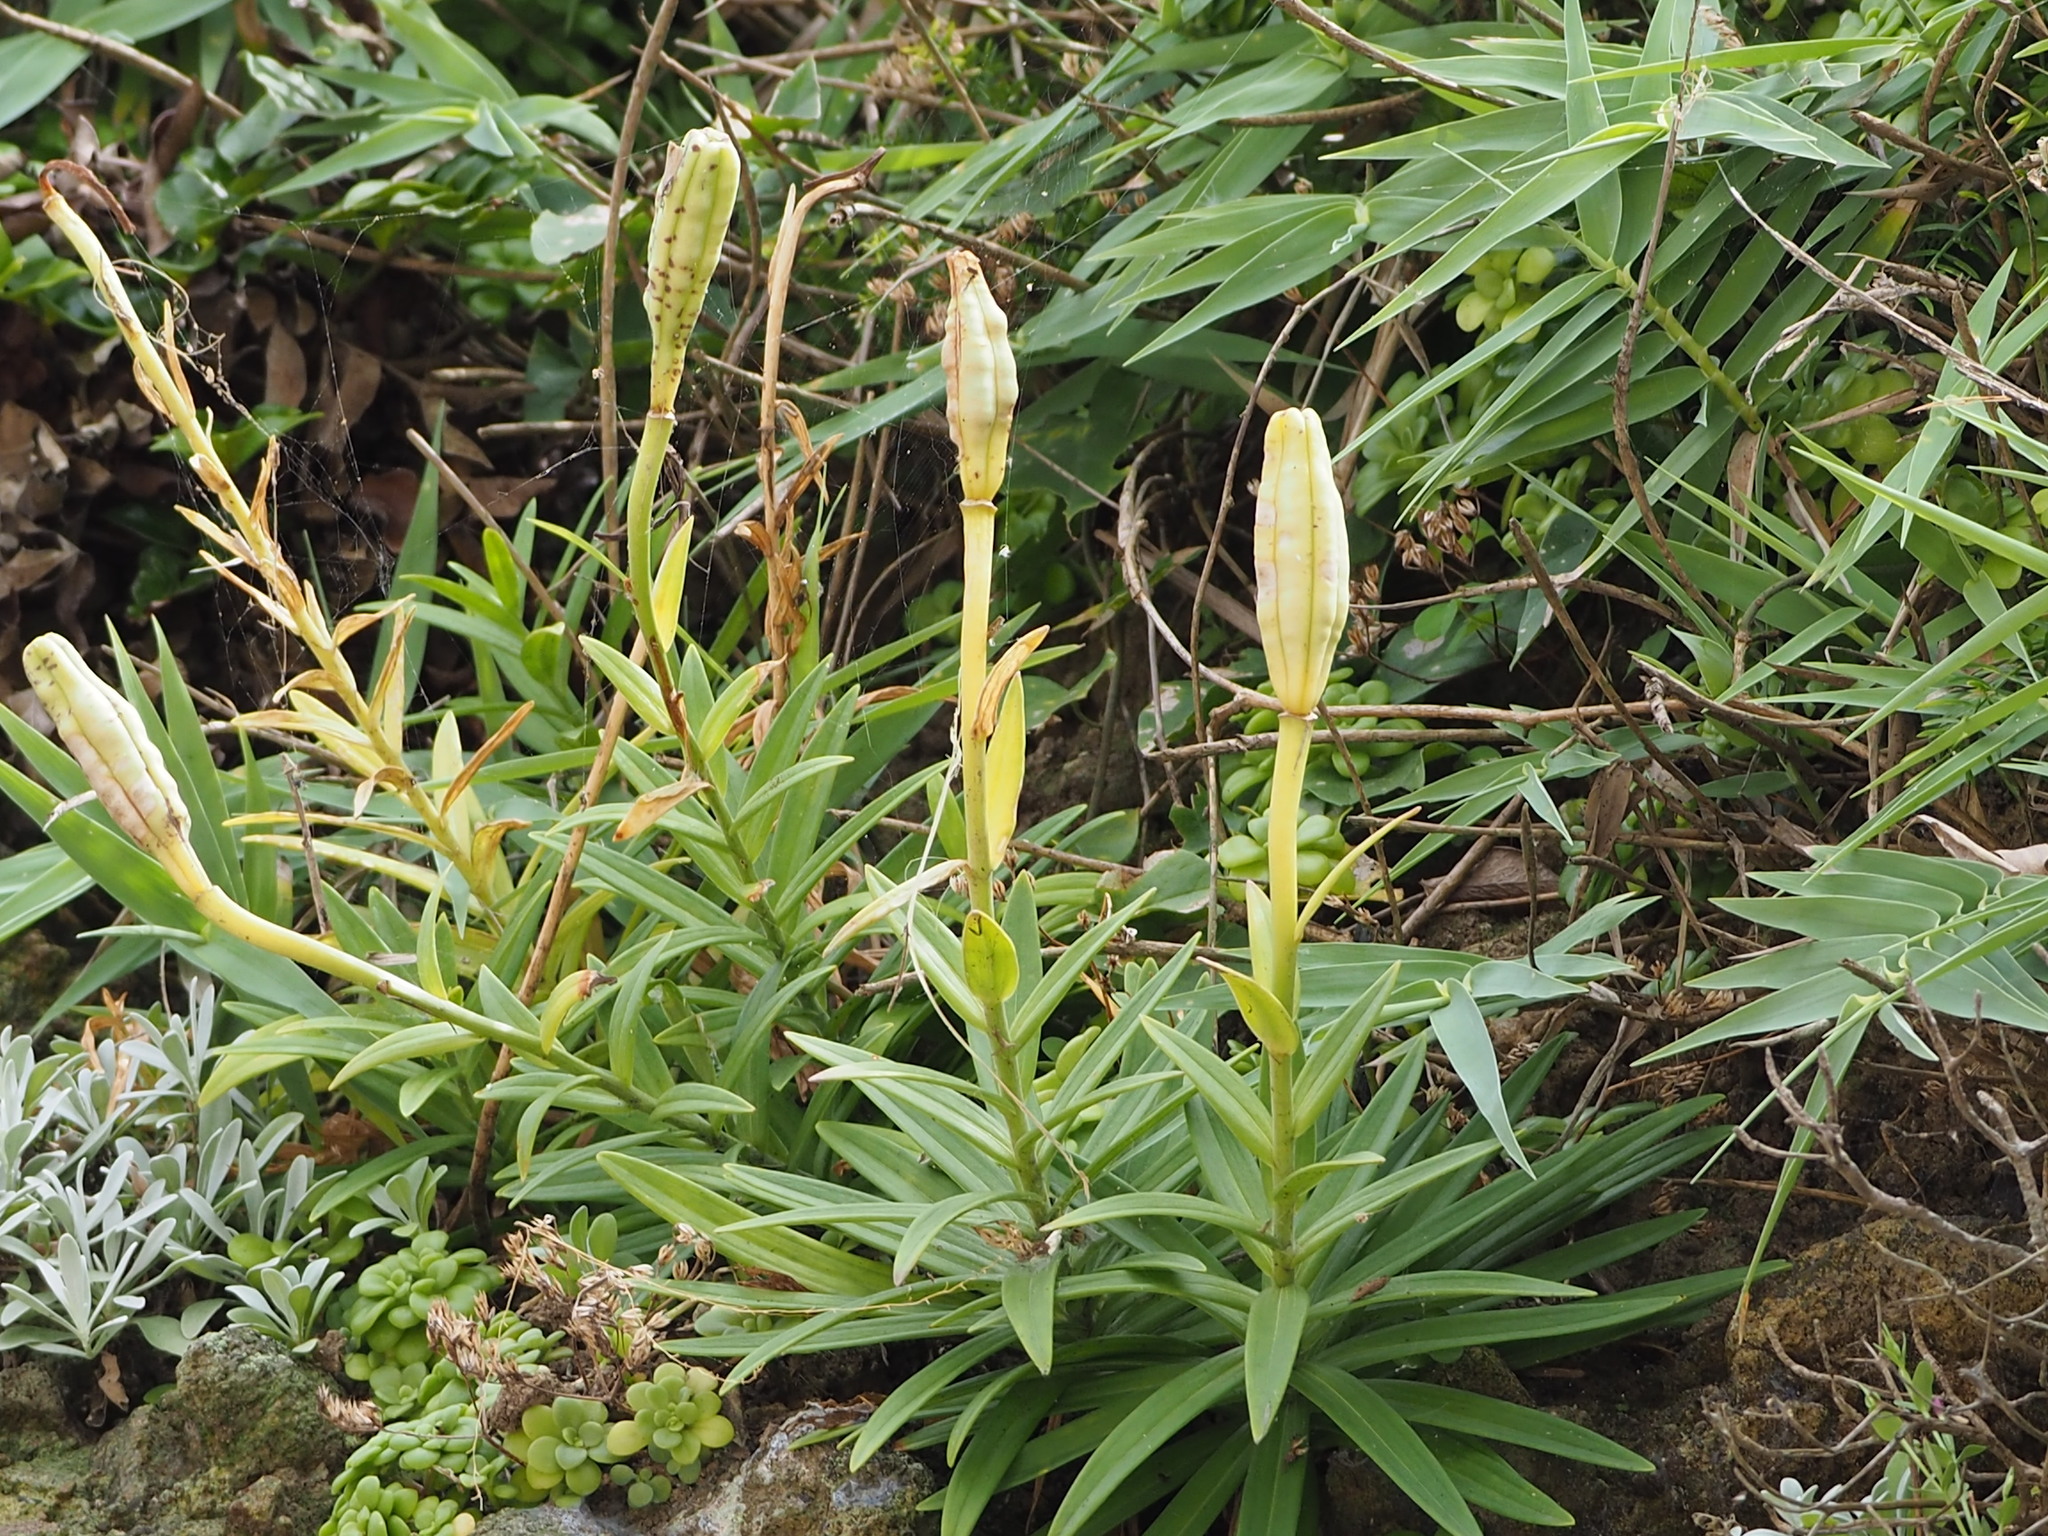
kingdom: Plantae
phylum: Tracheophyta
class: Liliopsida
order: Liliales
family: Liliaceae
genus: Lilium
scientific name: Lilium longiflorum
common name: Easter lily
